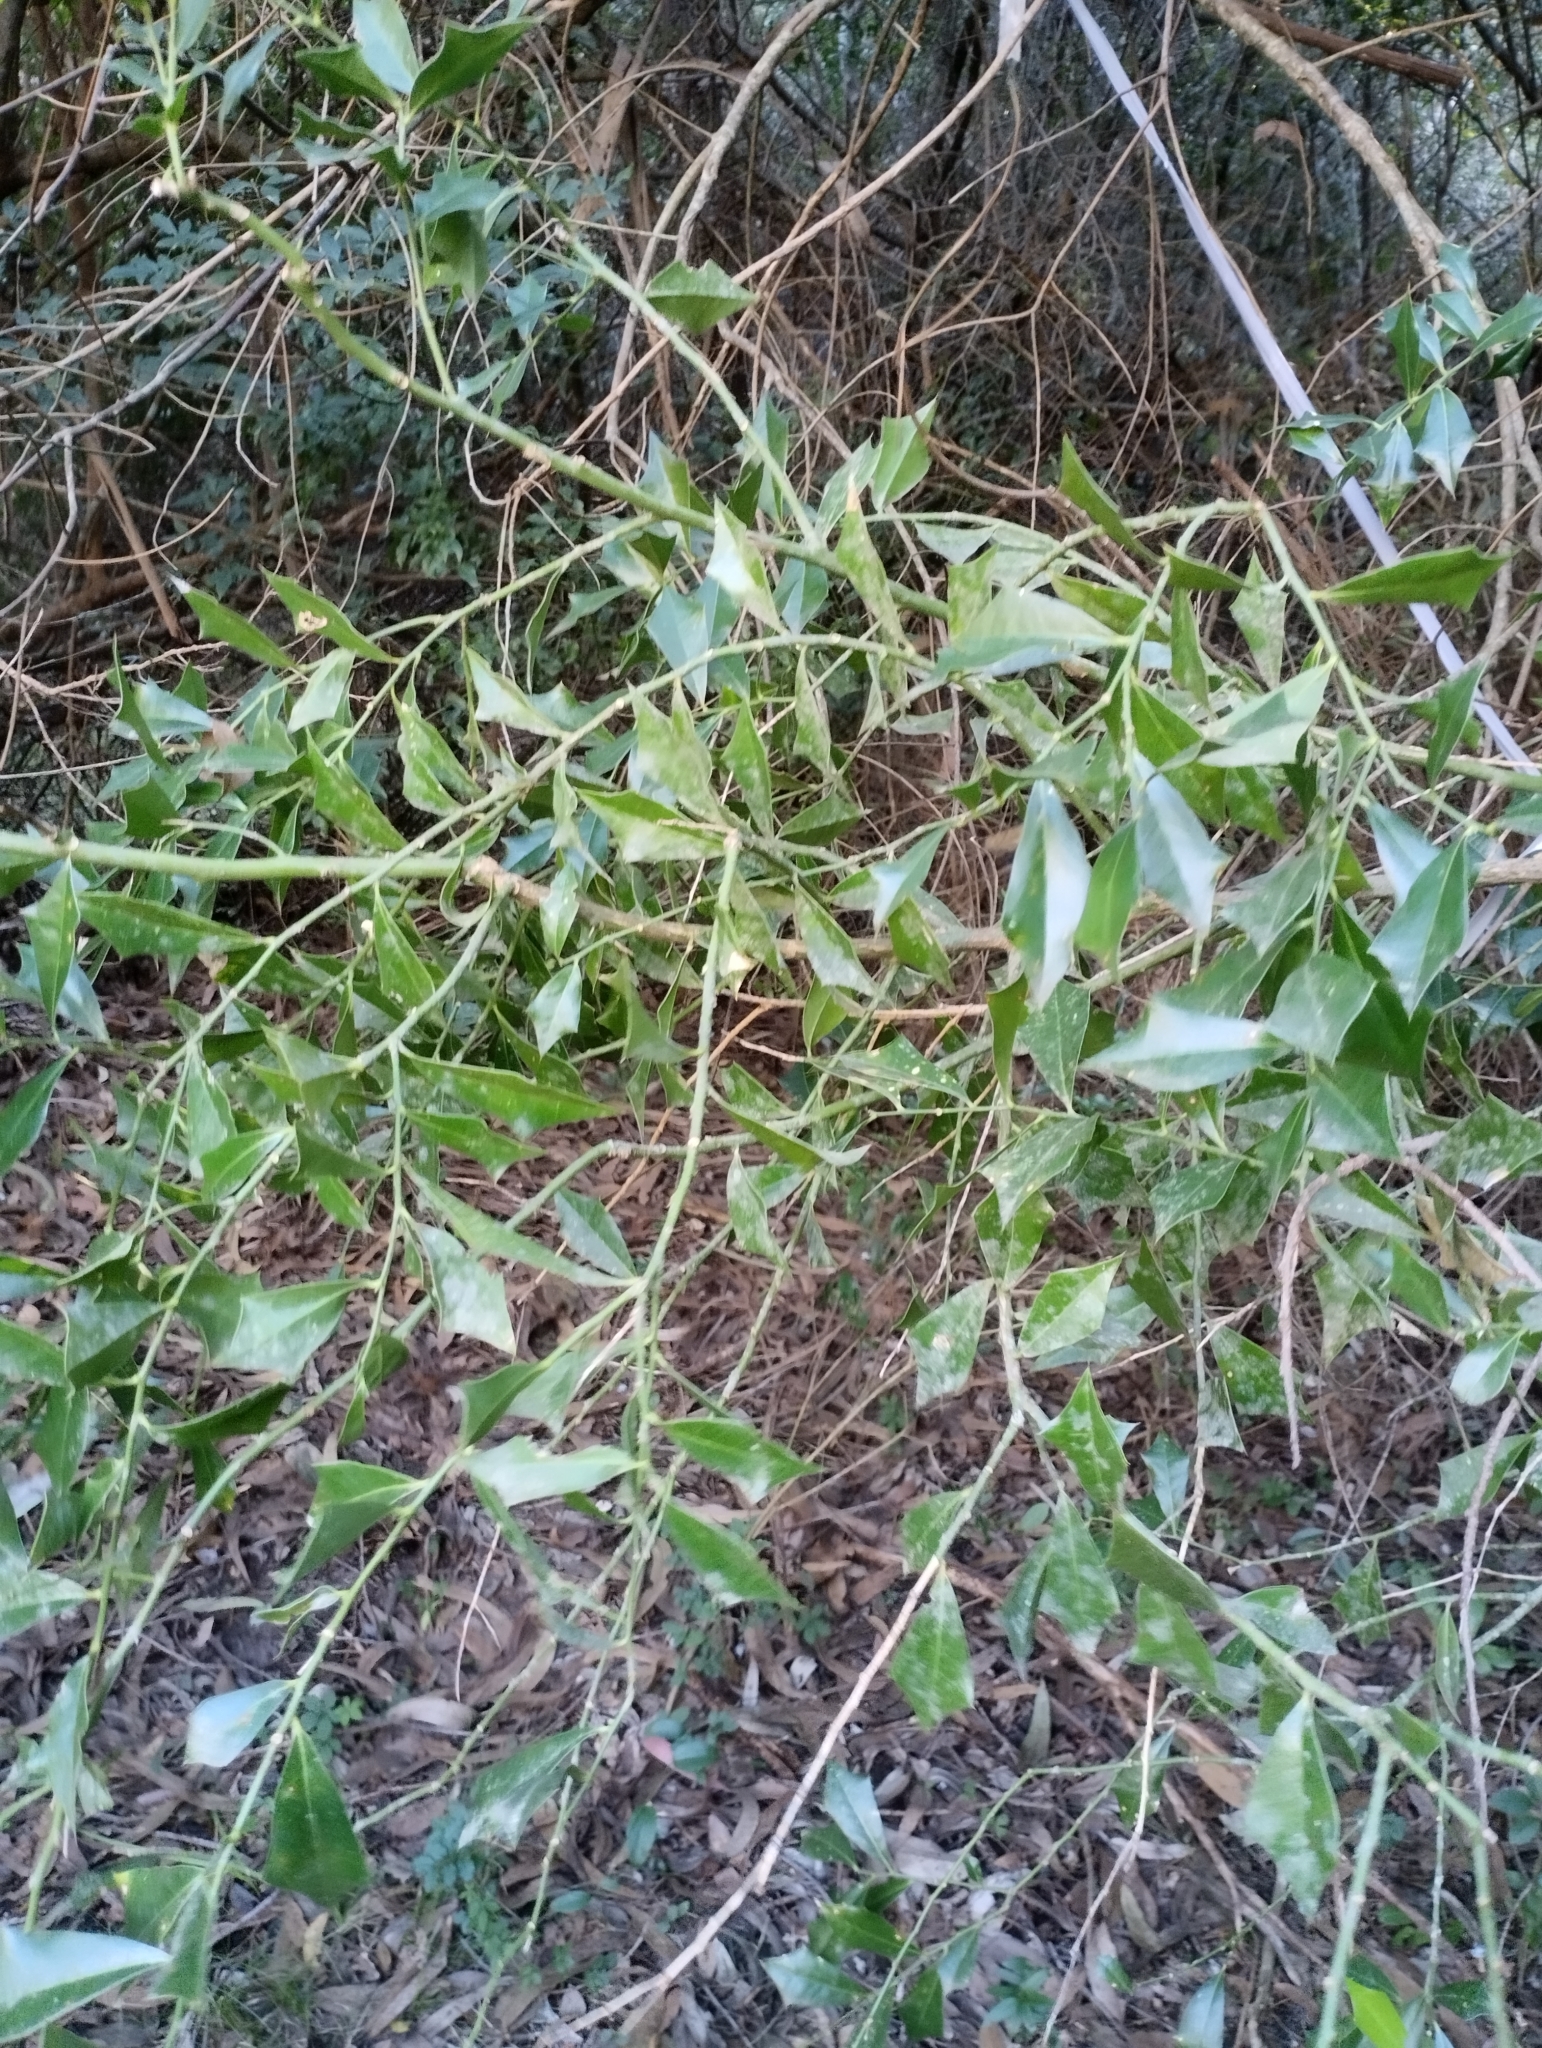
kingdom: Plantae
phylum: Tracheophyta
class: Magnoliopsida
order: Santalales
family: Cervantesiaceae
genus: Jodina
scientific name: Jodina rhombifolia
